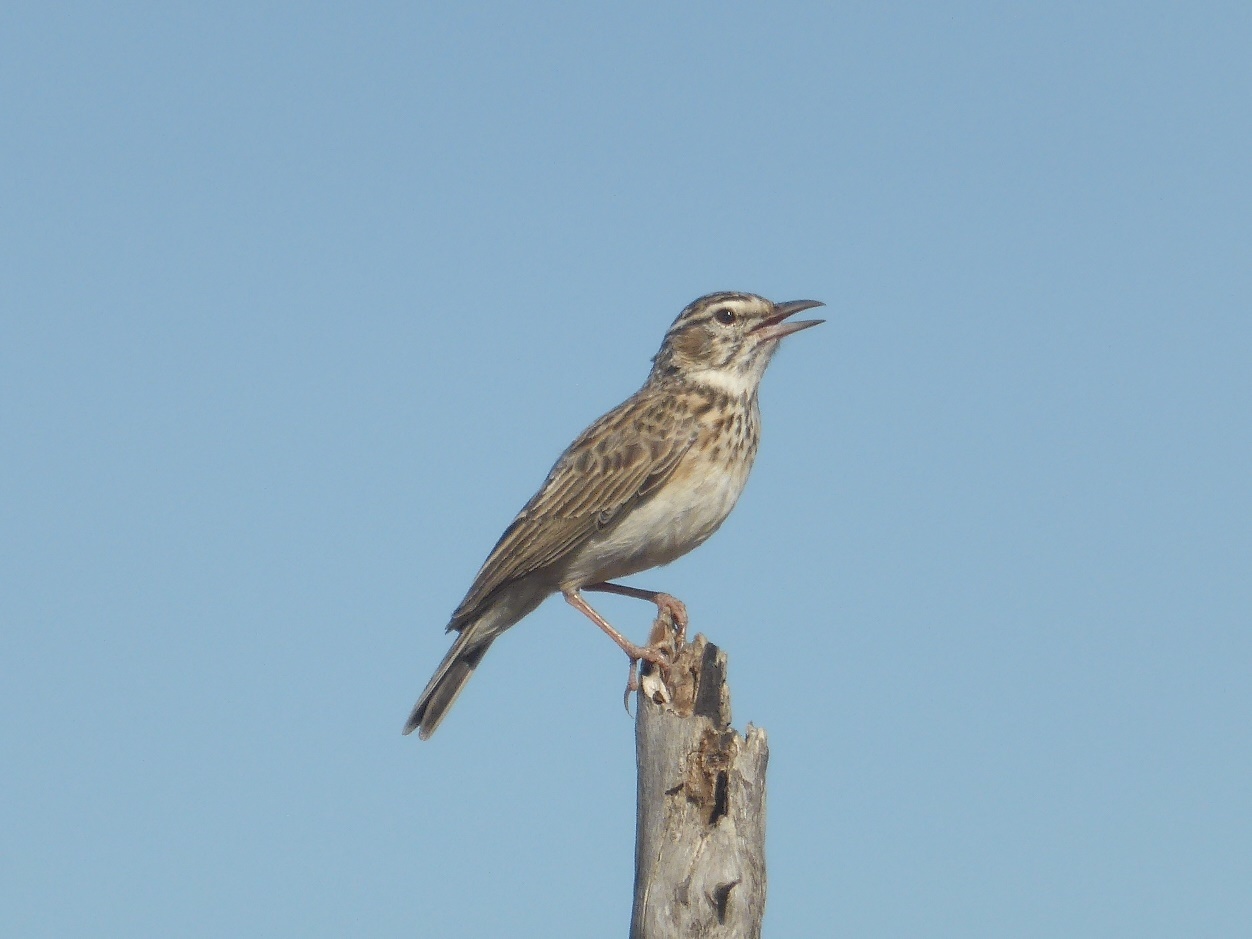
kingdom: Animalia
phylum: Chordata
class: Aves
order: Passeriformes
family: Alaudidae
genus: Calendulauda
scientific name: Calendulauda sabota
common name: Sabota lark
